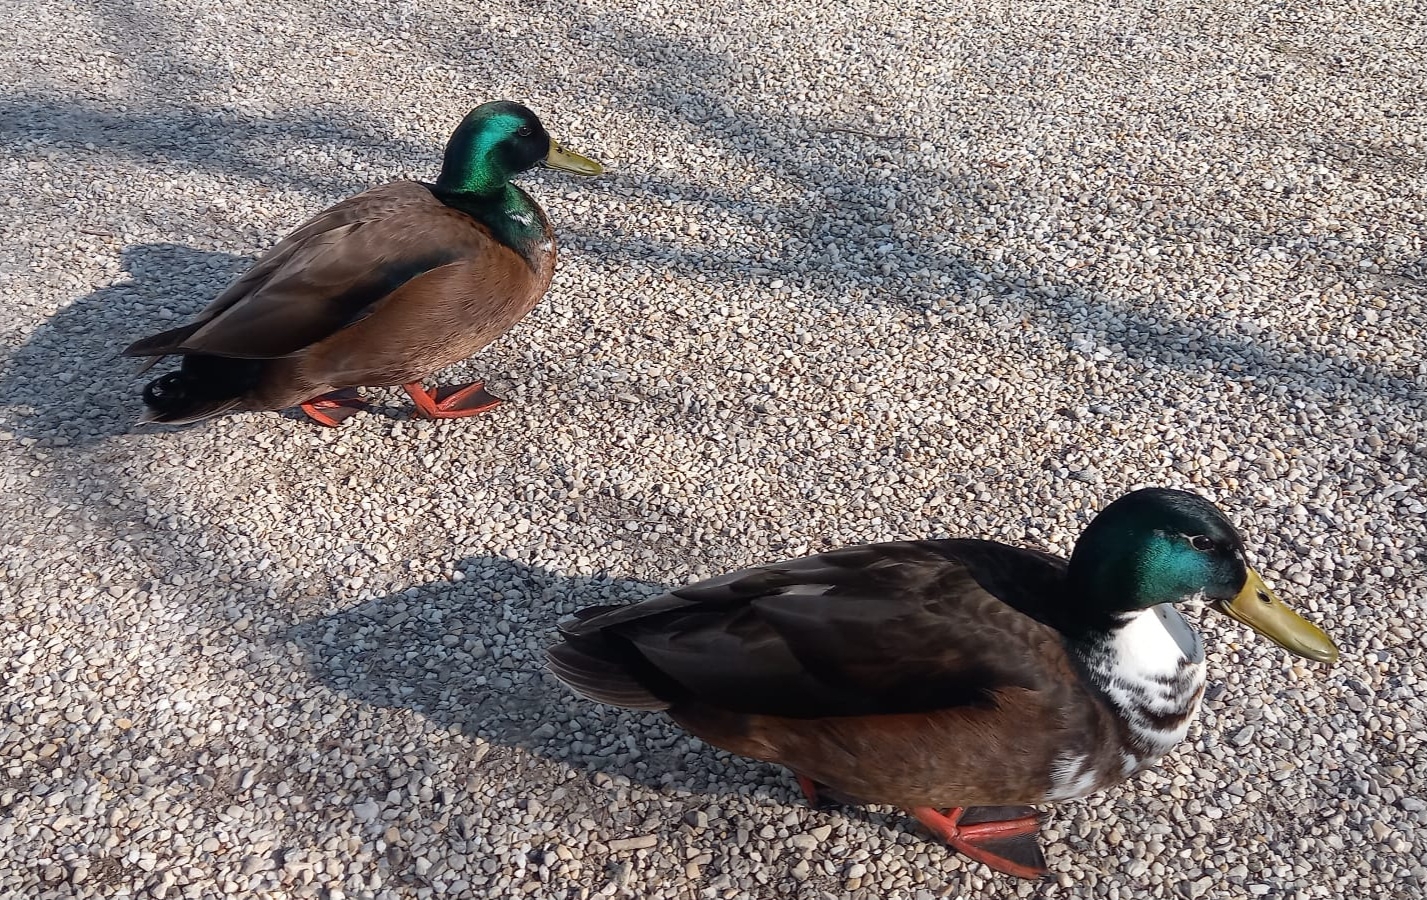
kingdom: Animalia
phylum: Chordata
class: Aves
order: Anseriformes
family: Anatidae
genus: Anas
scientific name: Anas platyrhynchos
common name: Mallard
